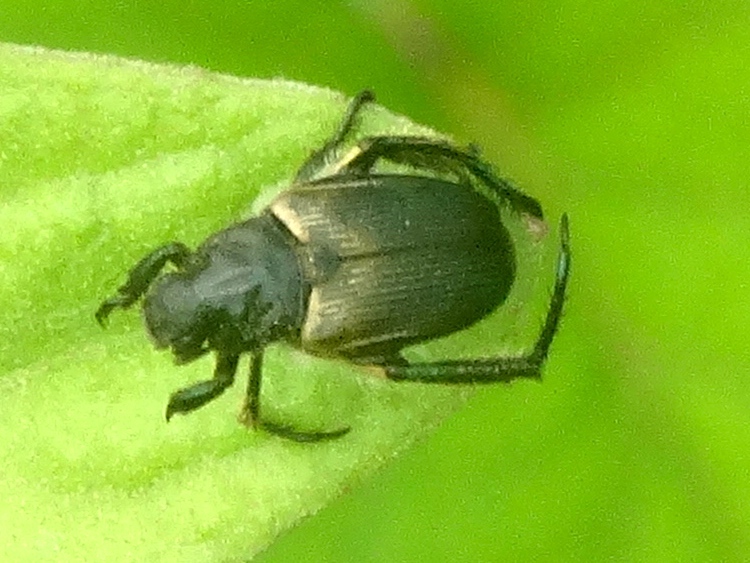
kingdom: Animalia
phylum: Arthropoda
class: Insecta
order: Coleoptera
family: Scarabaeidae
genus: Strigoderma
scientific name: Strigoderma
